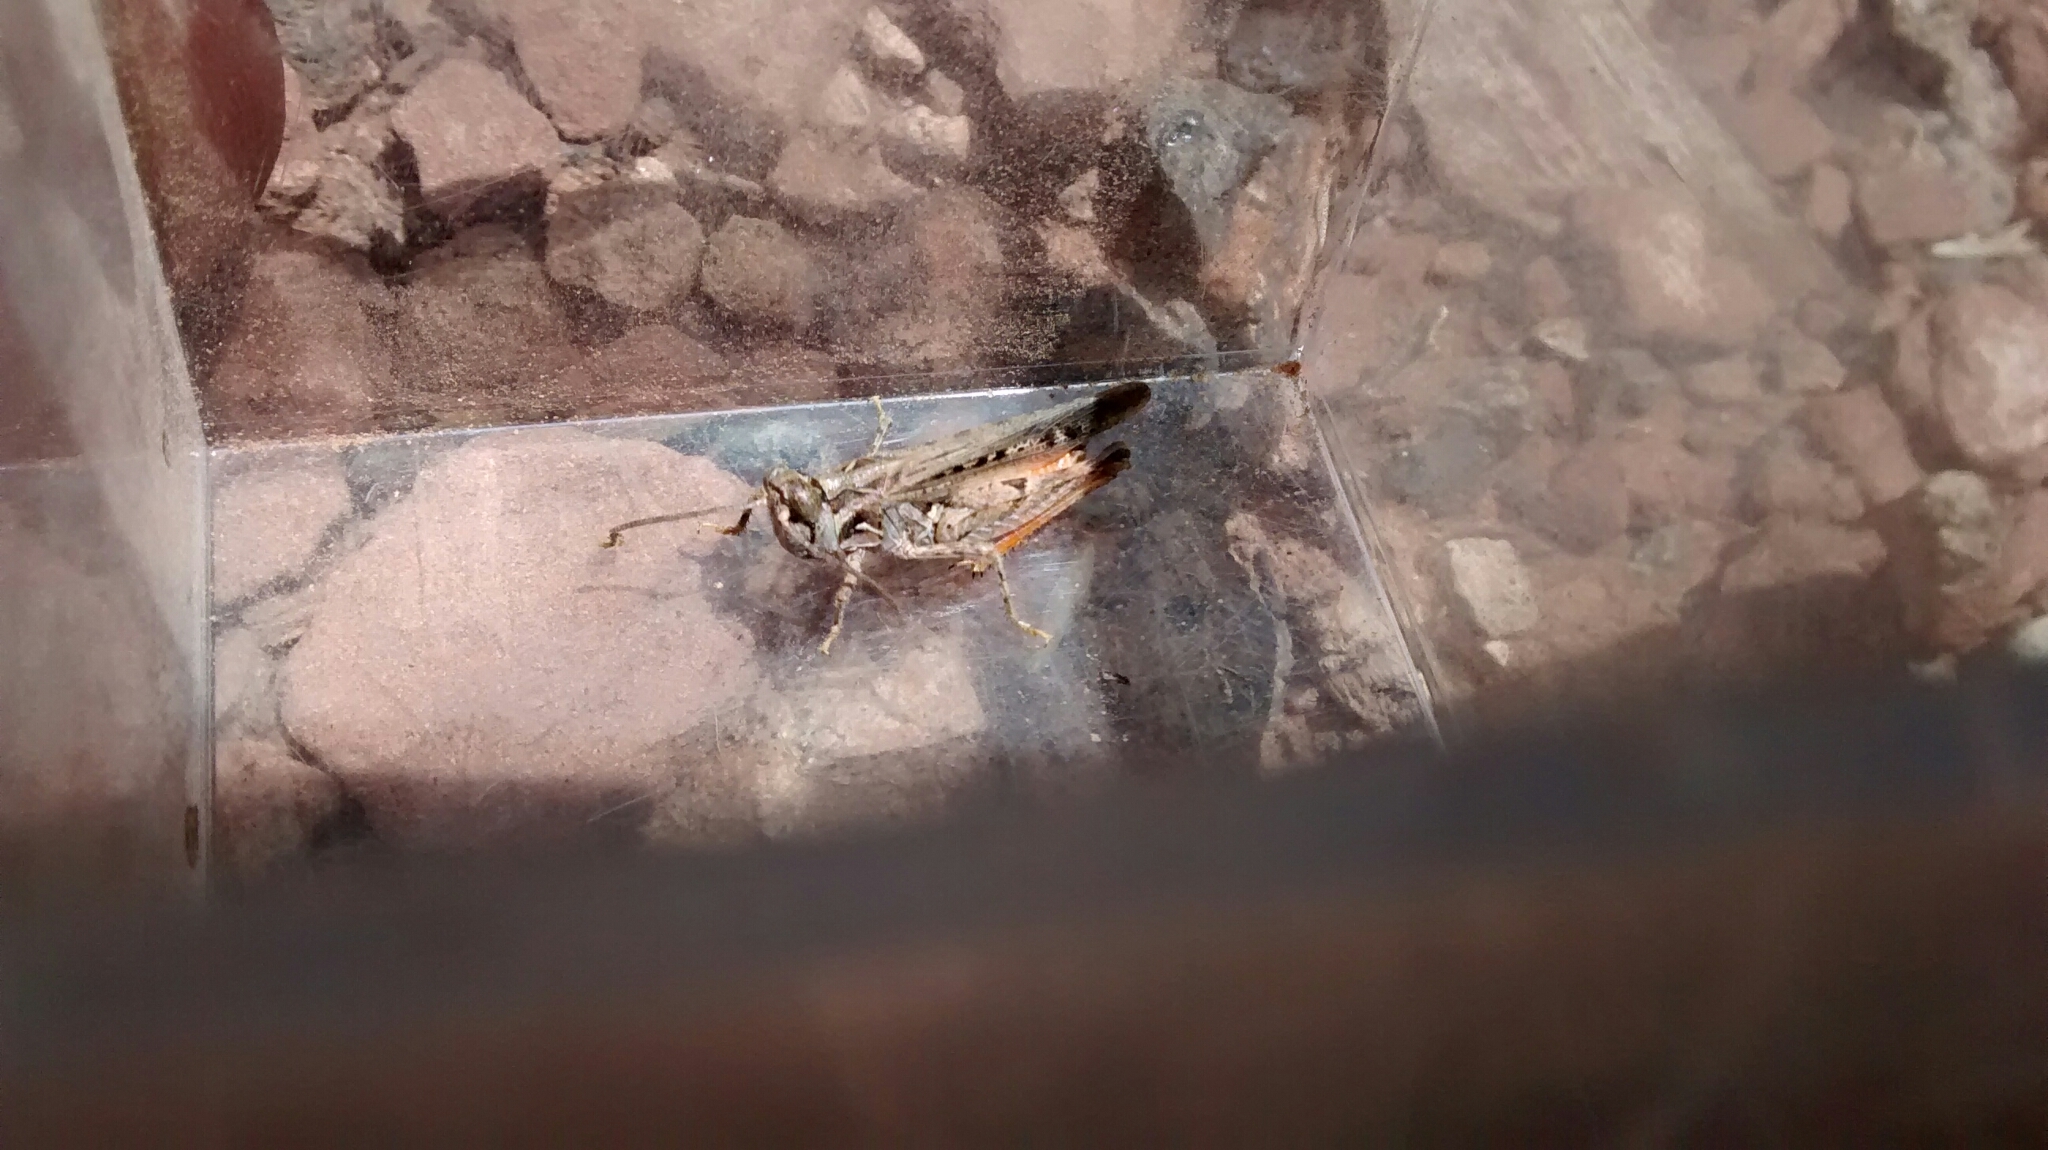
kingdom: Animalia
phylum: Arthropoda
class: Insecta
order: Orthoptera
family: Acrididae
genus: Psoloessa
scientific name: Psoloessa delicatula
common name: Brown-spotted range grasshopper
